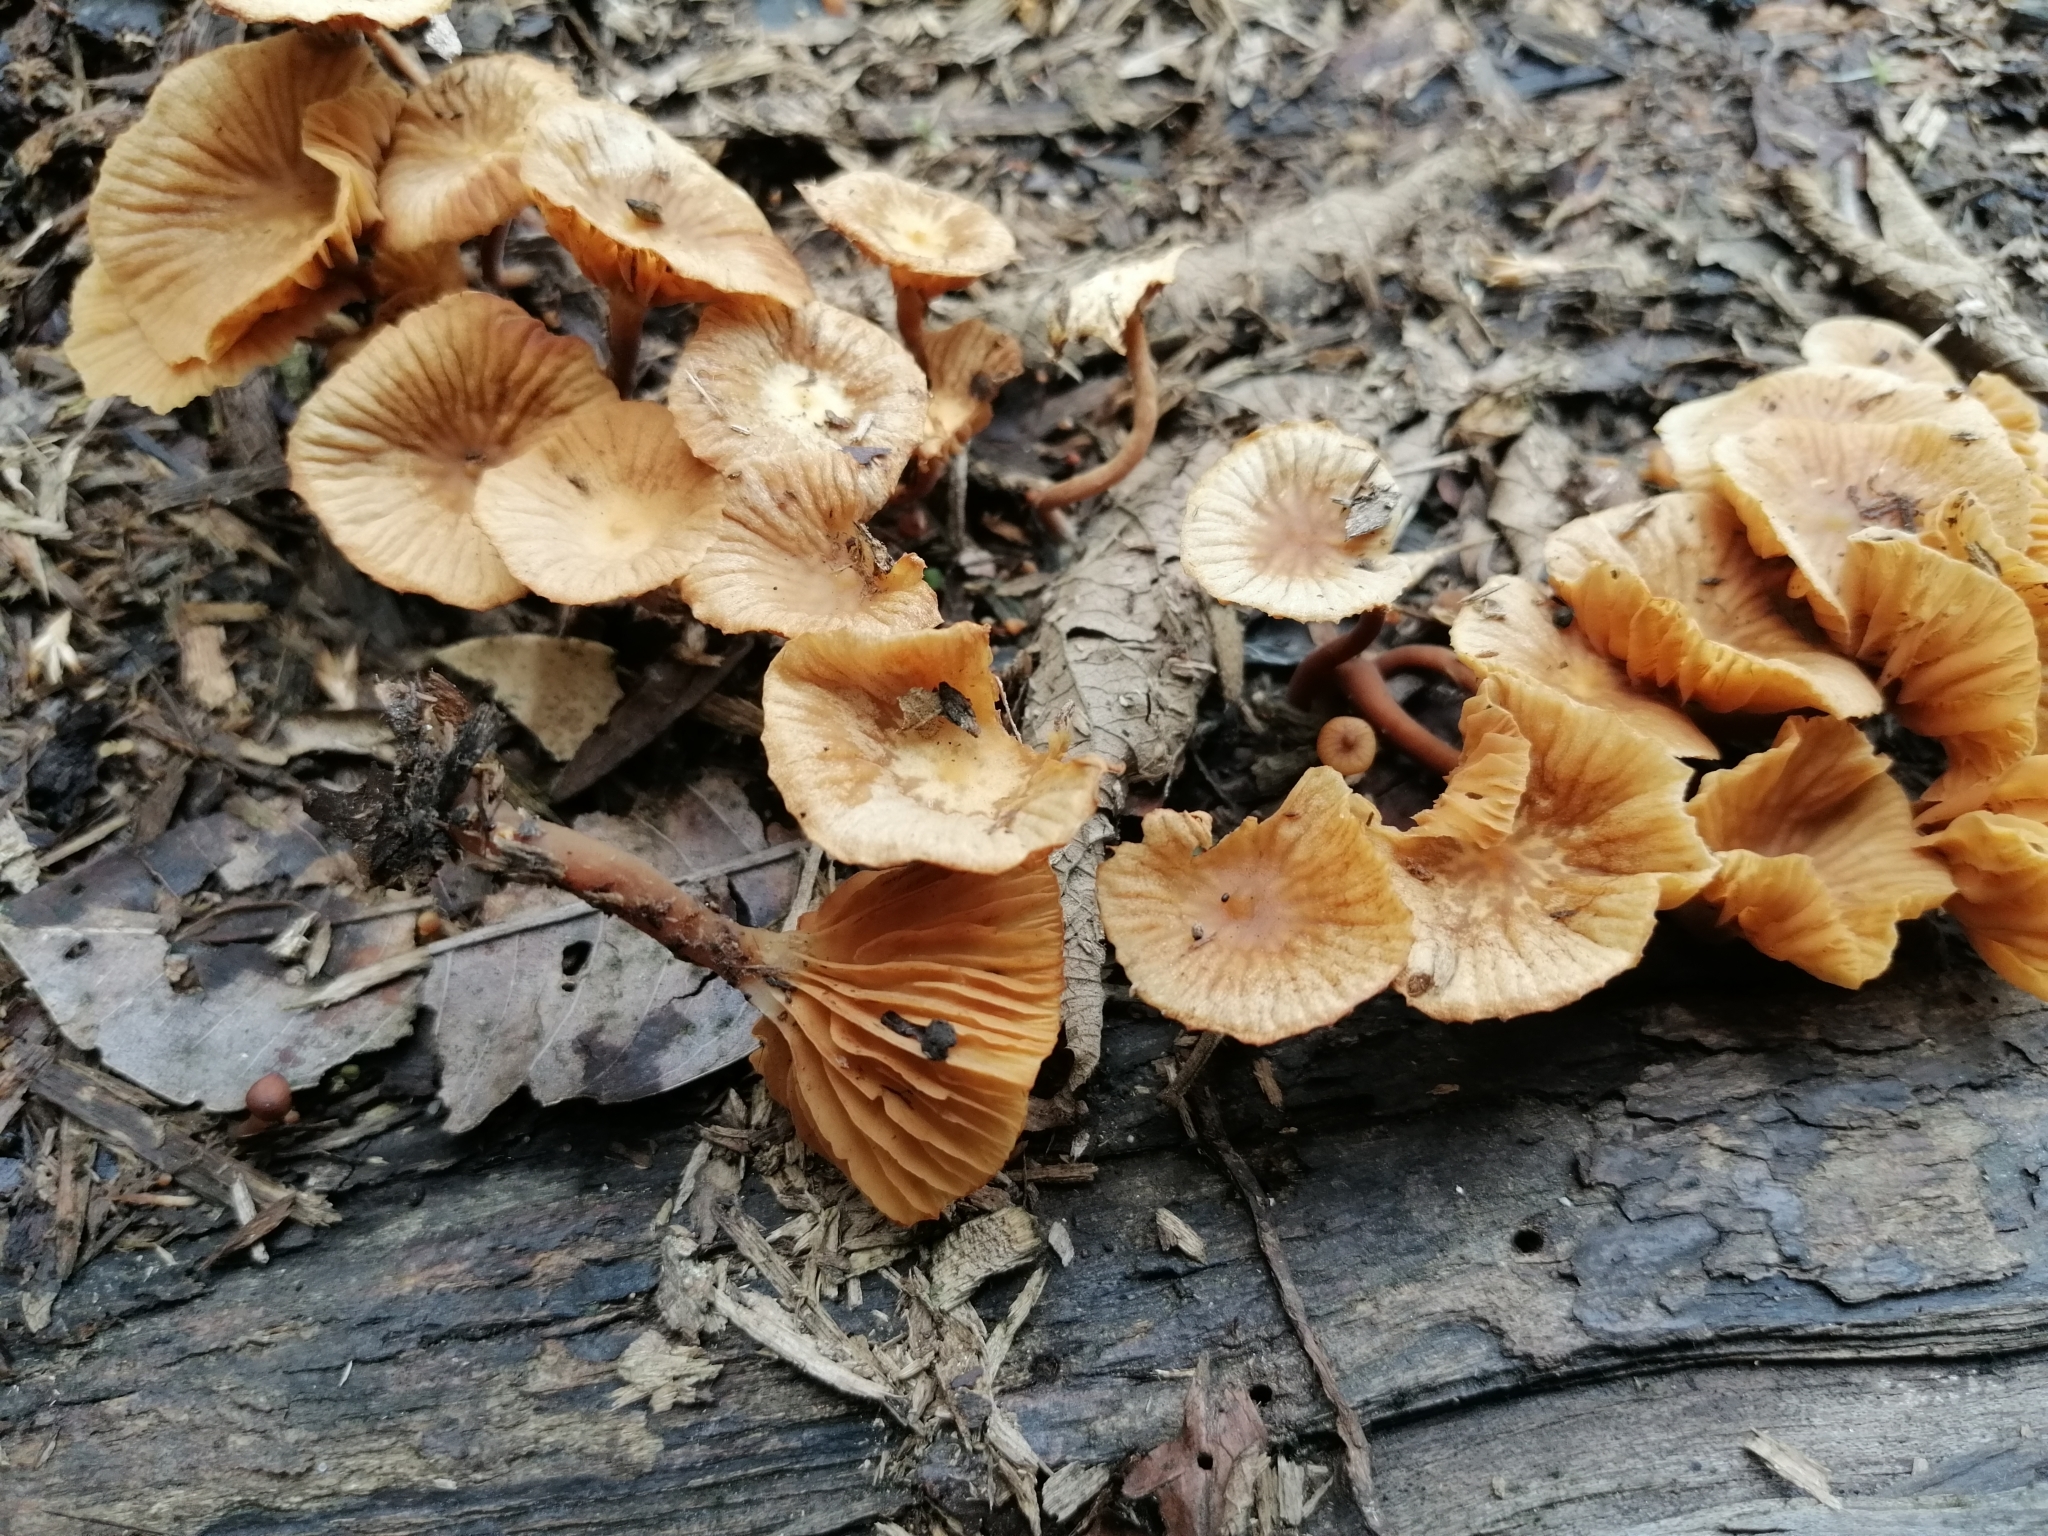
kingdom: Fungi
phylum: Basidiomycota
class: Agaricomycetes
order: Agaricales
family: Hymenogastraceae
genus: Galerina
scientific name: Galerina velutipes
